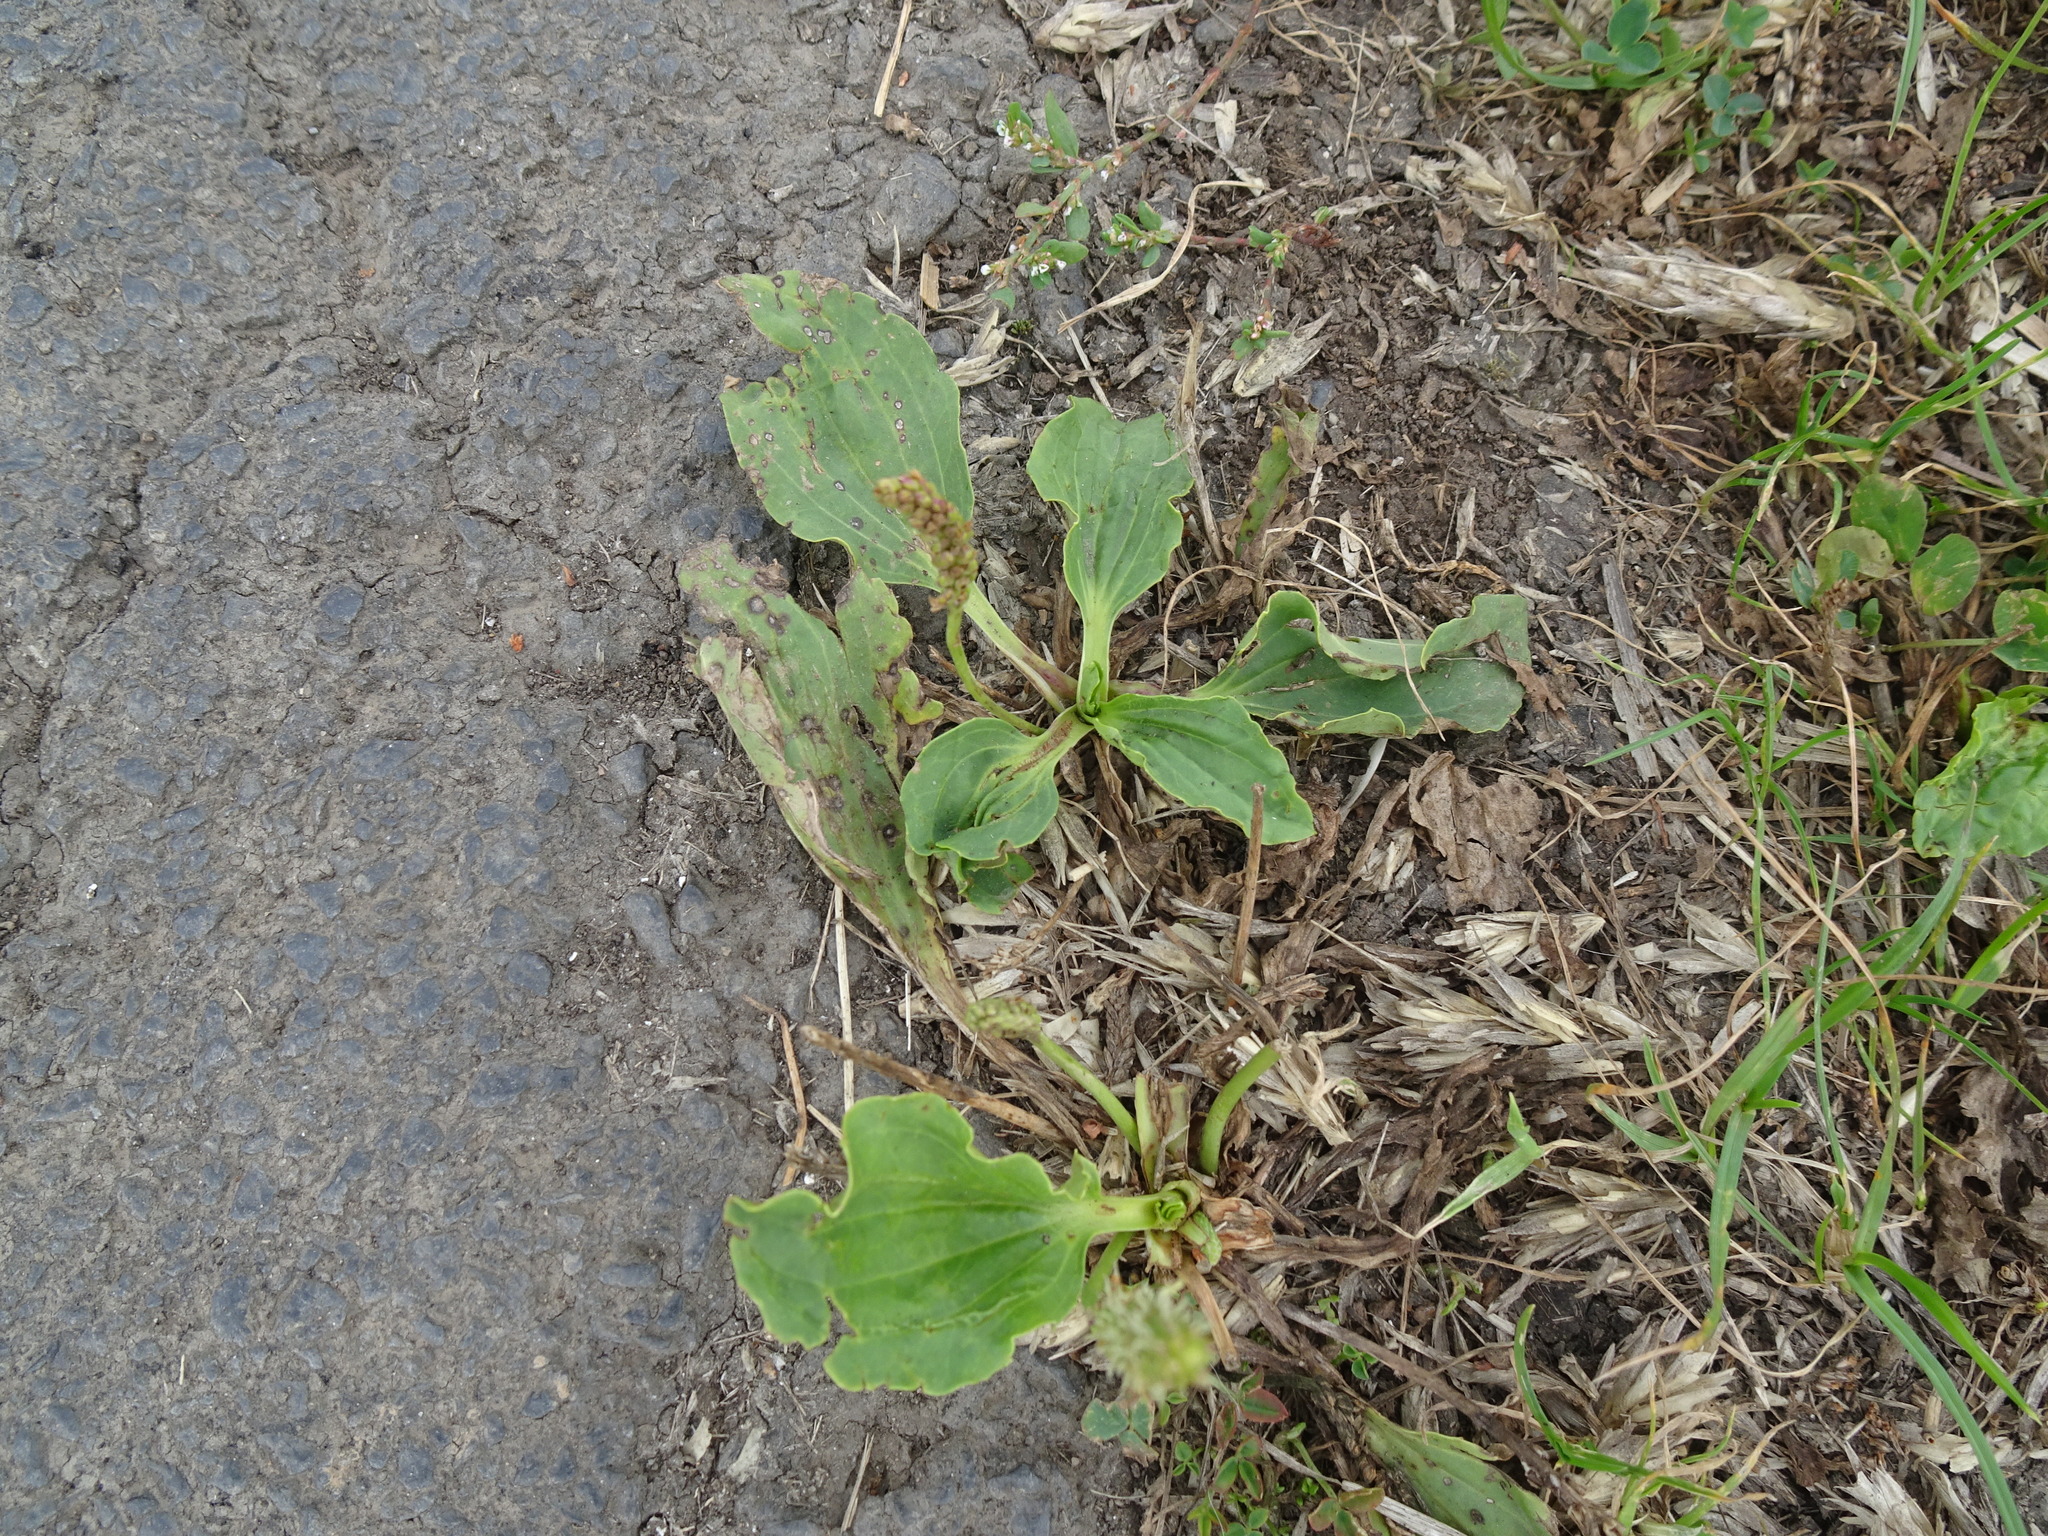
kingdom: Plantae
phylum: Tracheophyta
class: Magnoliopsida
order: Lamiales
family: Plantaginaceae
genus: Plantago
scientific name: Plantago major
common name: Common plantain
